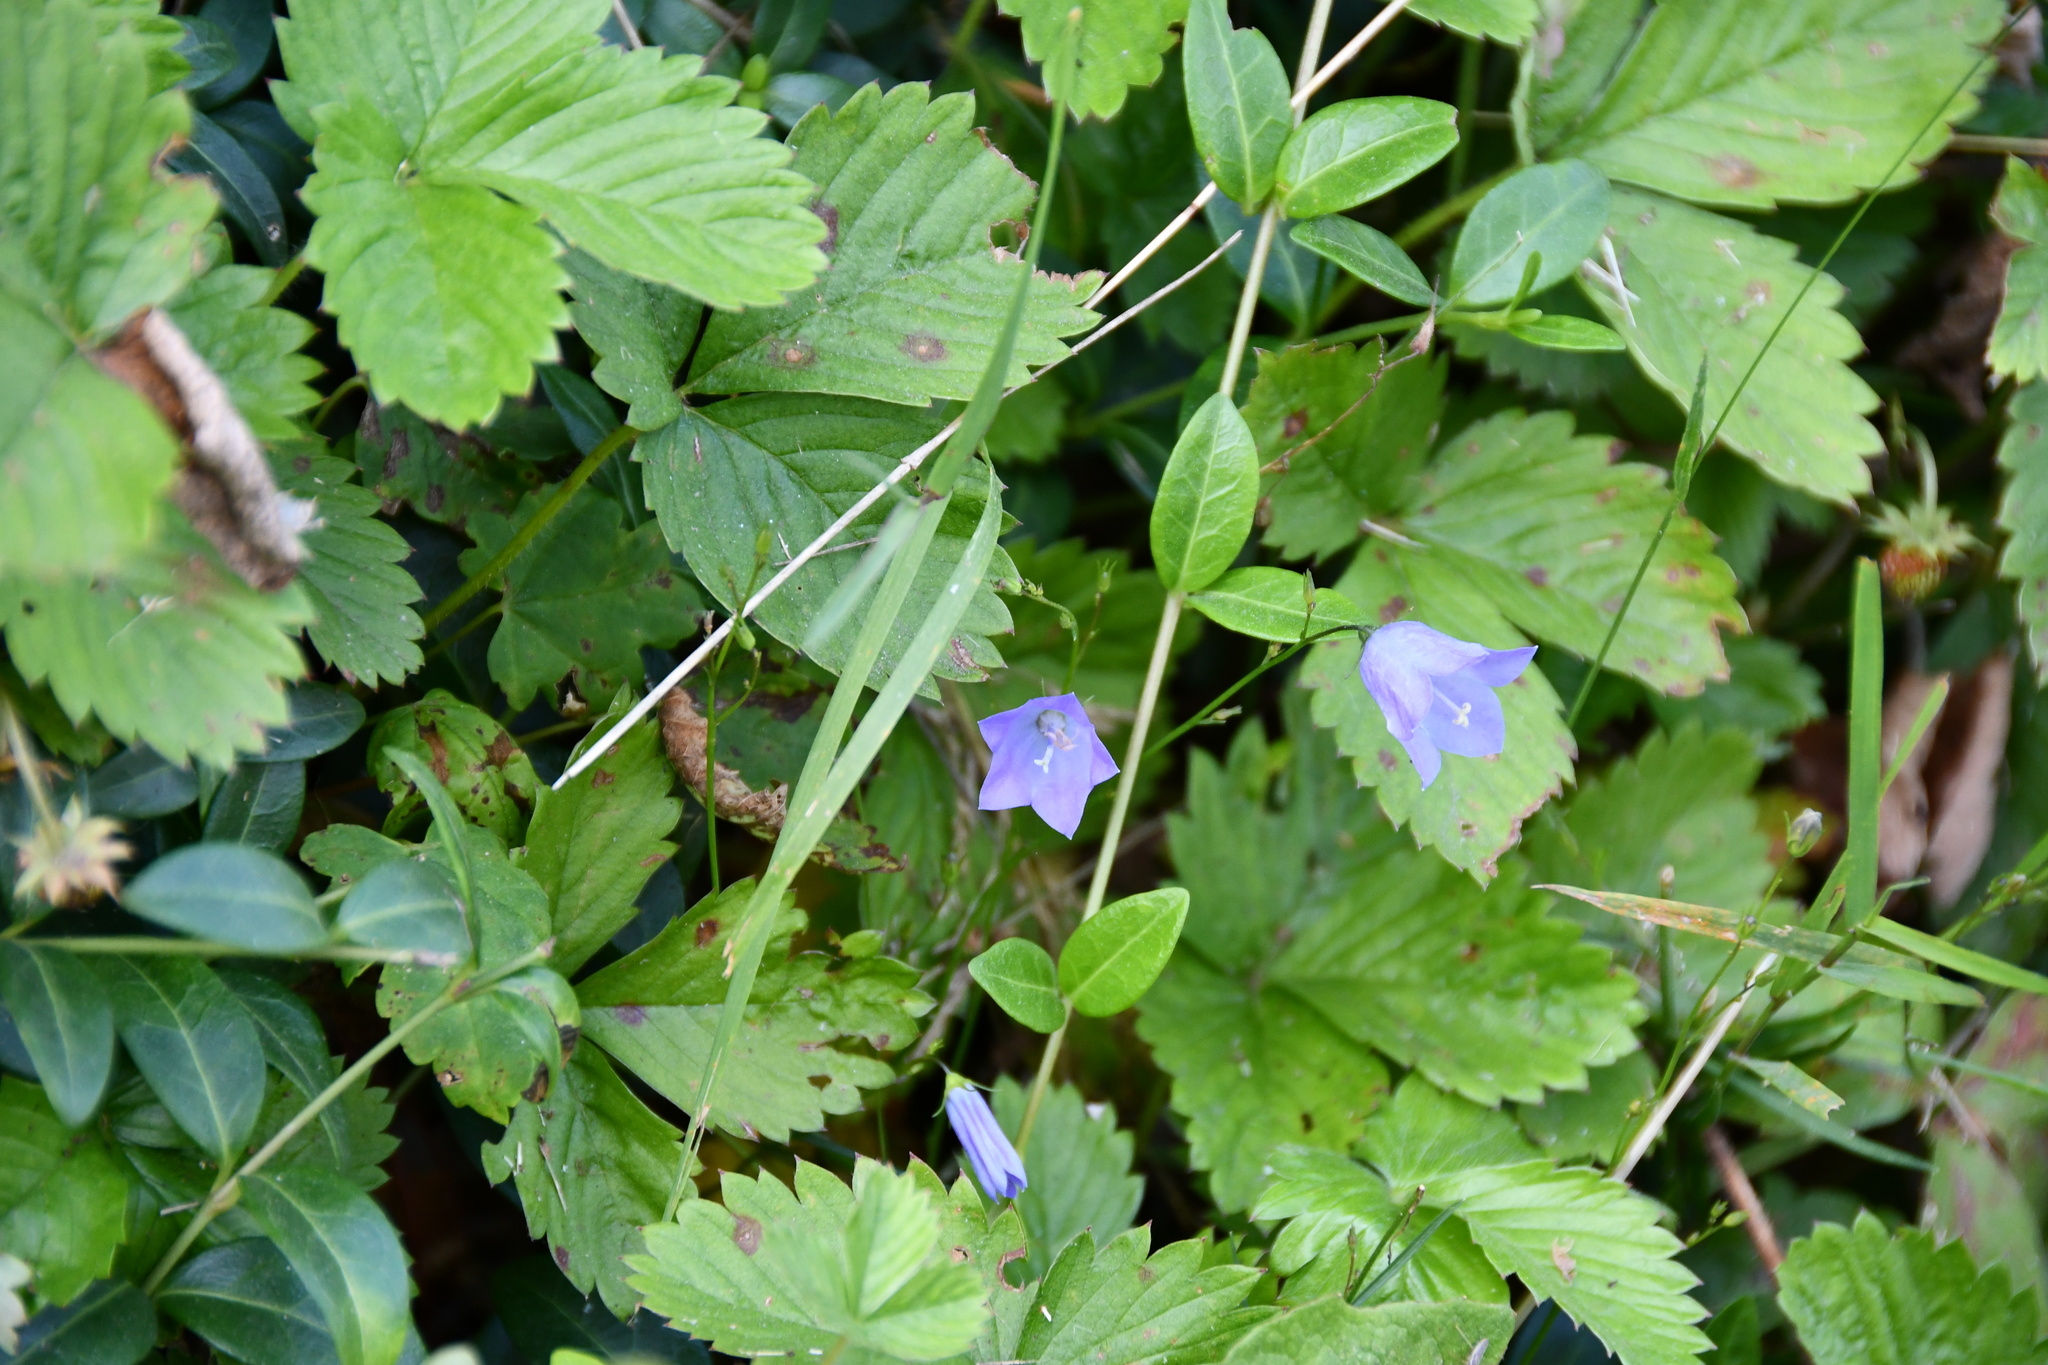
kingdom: Plantae
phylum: Tracheophyta
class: Magnoliopsida
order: Asterales
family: Campanulaceae
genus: Campanula
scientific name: Campanula rotundifolia
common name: Harebell
